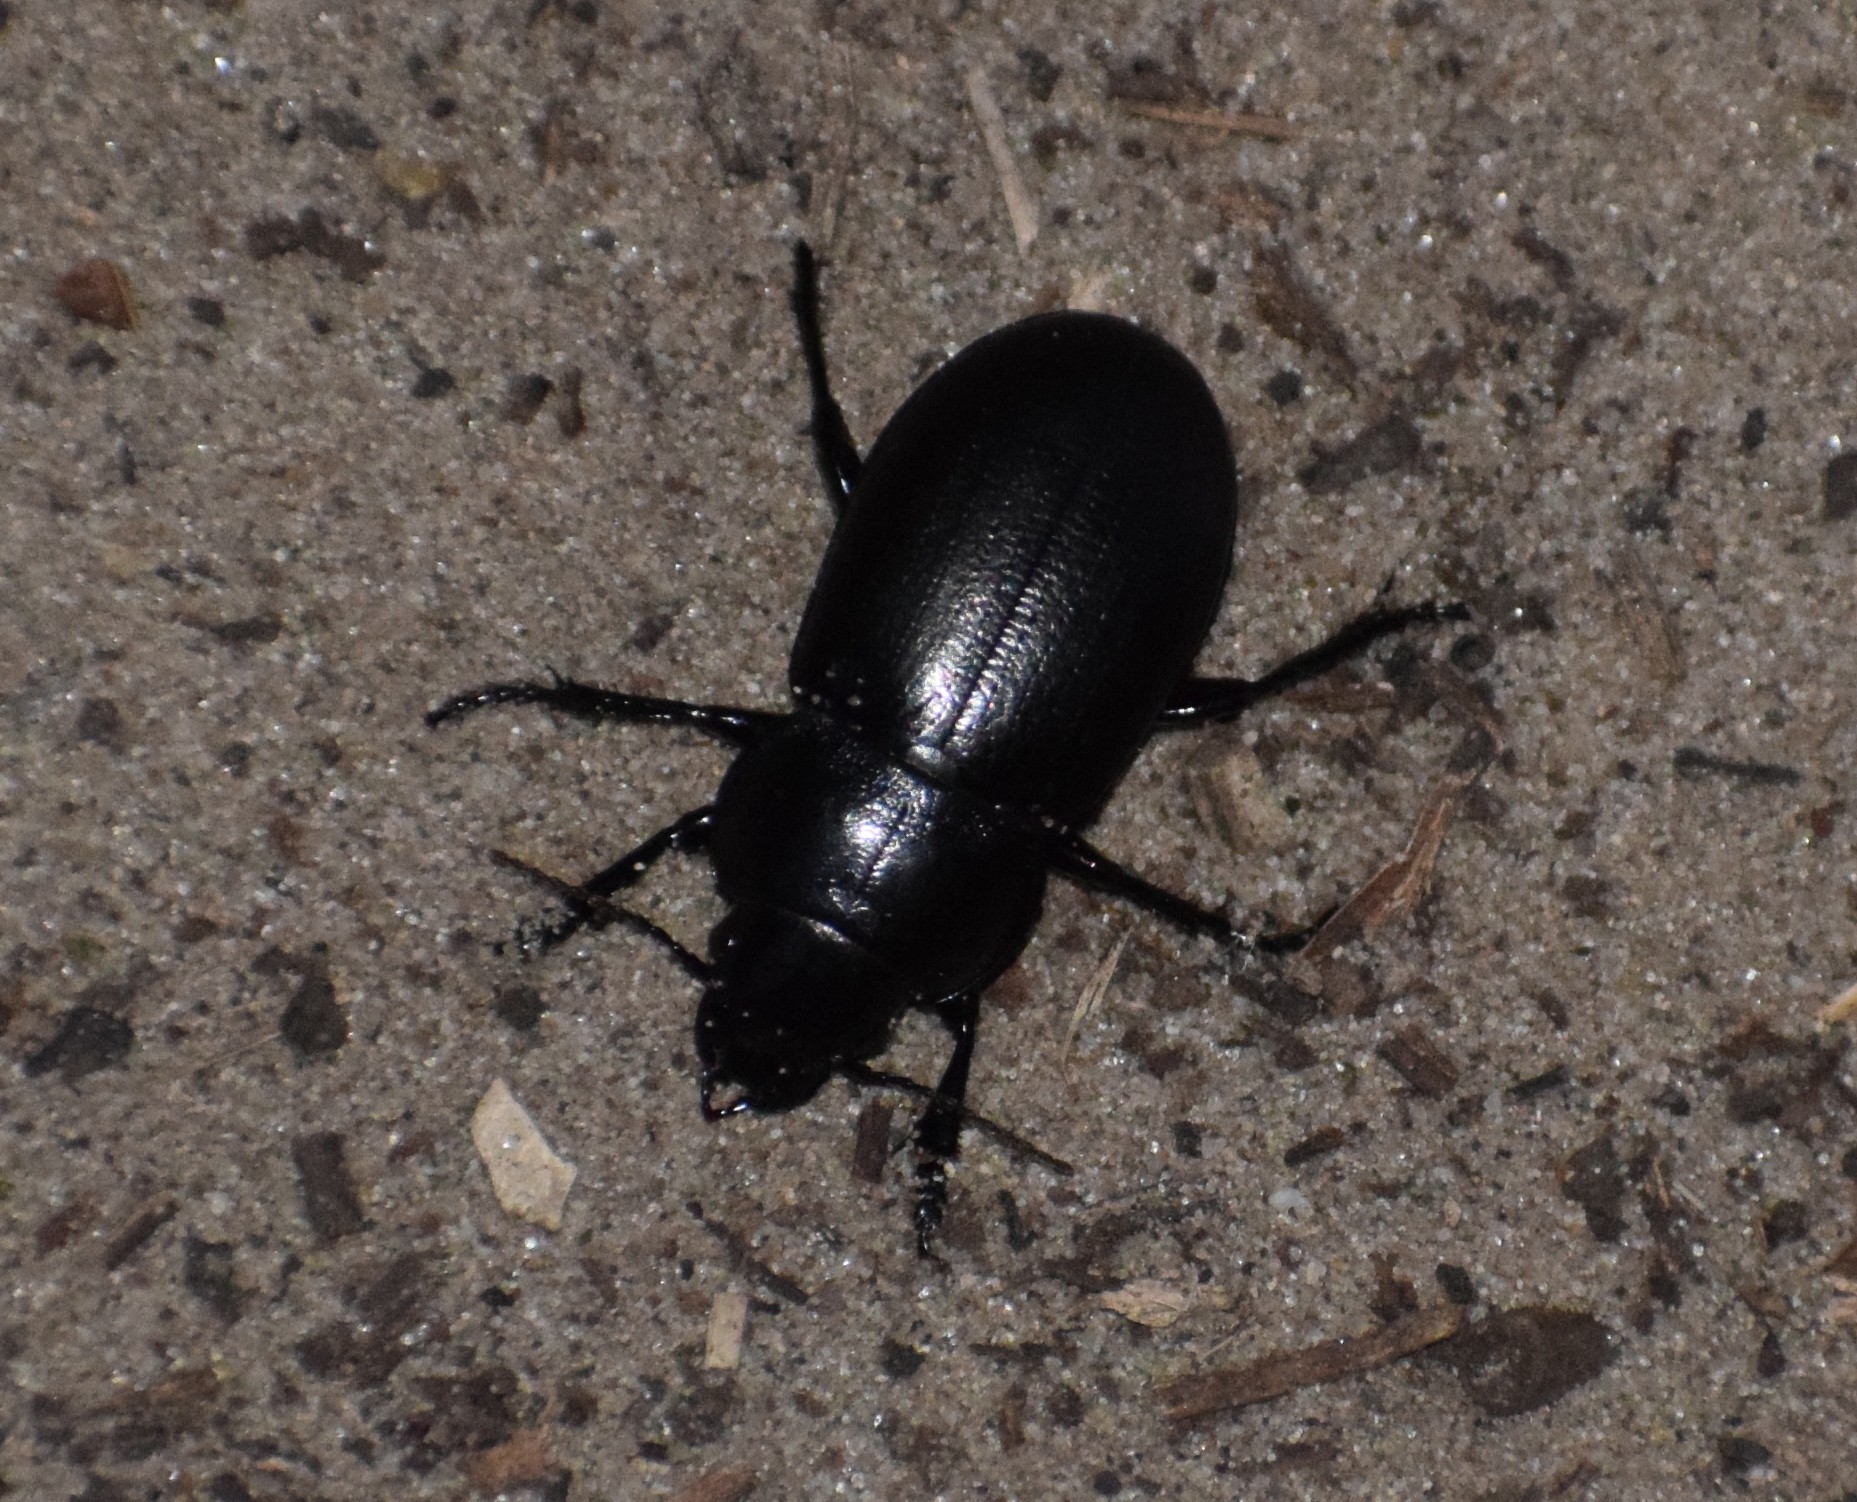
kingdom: Animalia
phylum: Arthropoda
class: Insecta
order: Coleoptera
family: Carabidae
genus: Zabrus
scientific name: Zabrus spinipes
